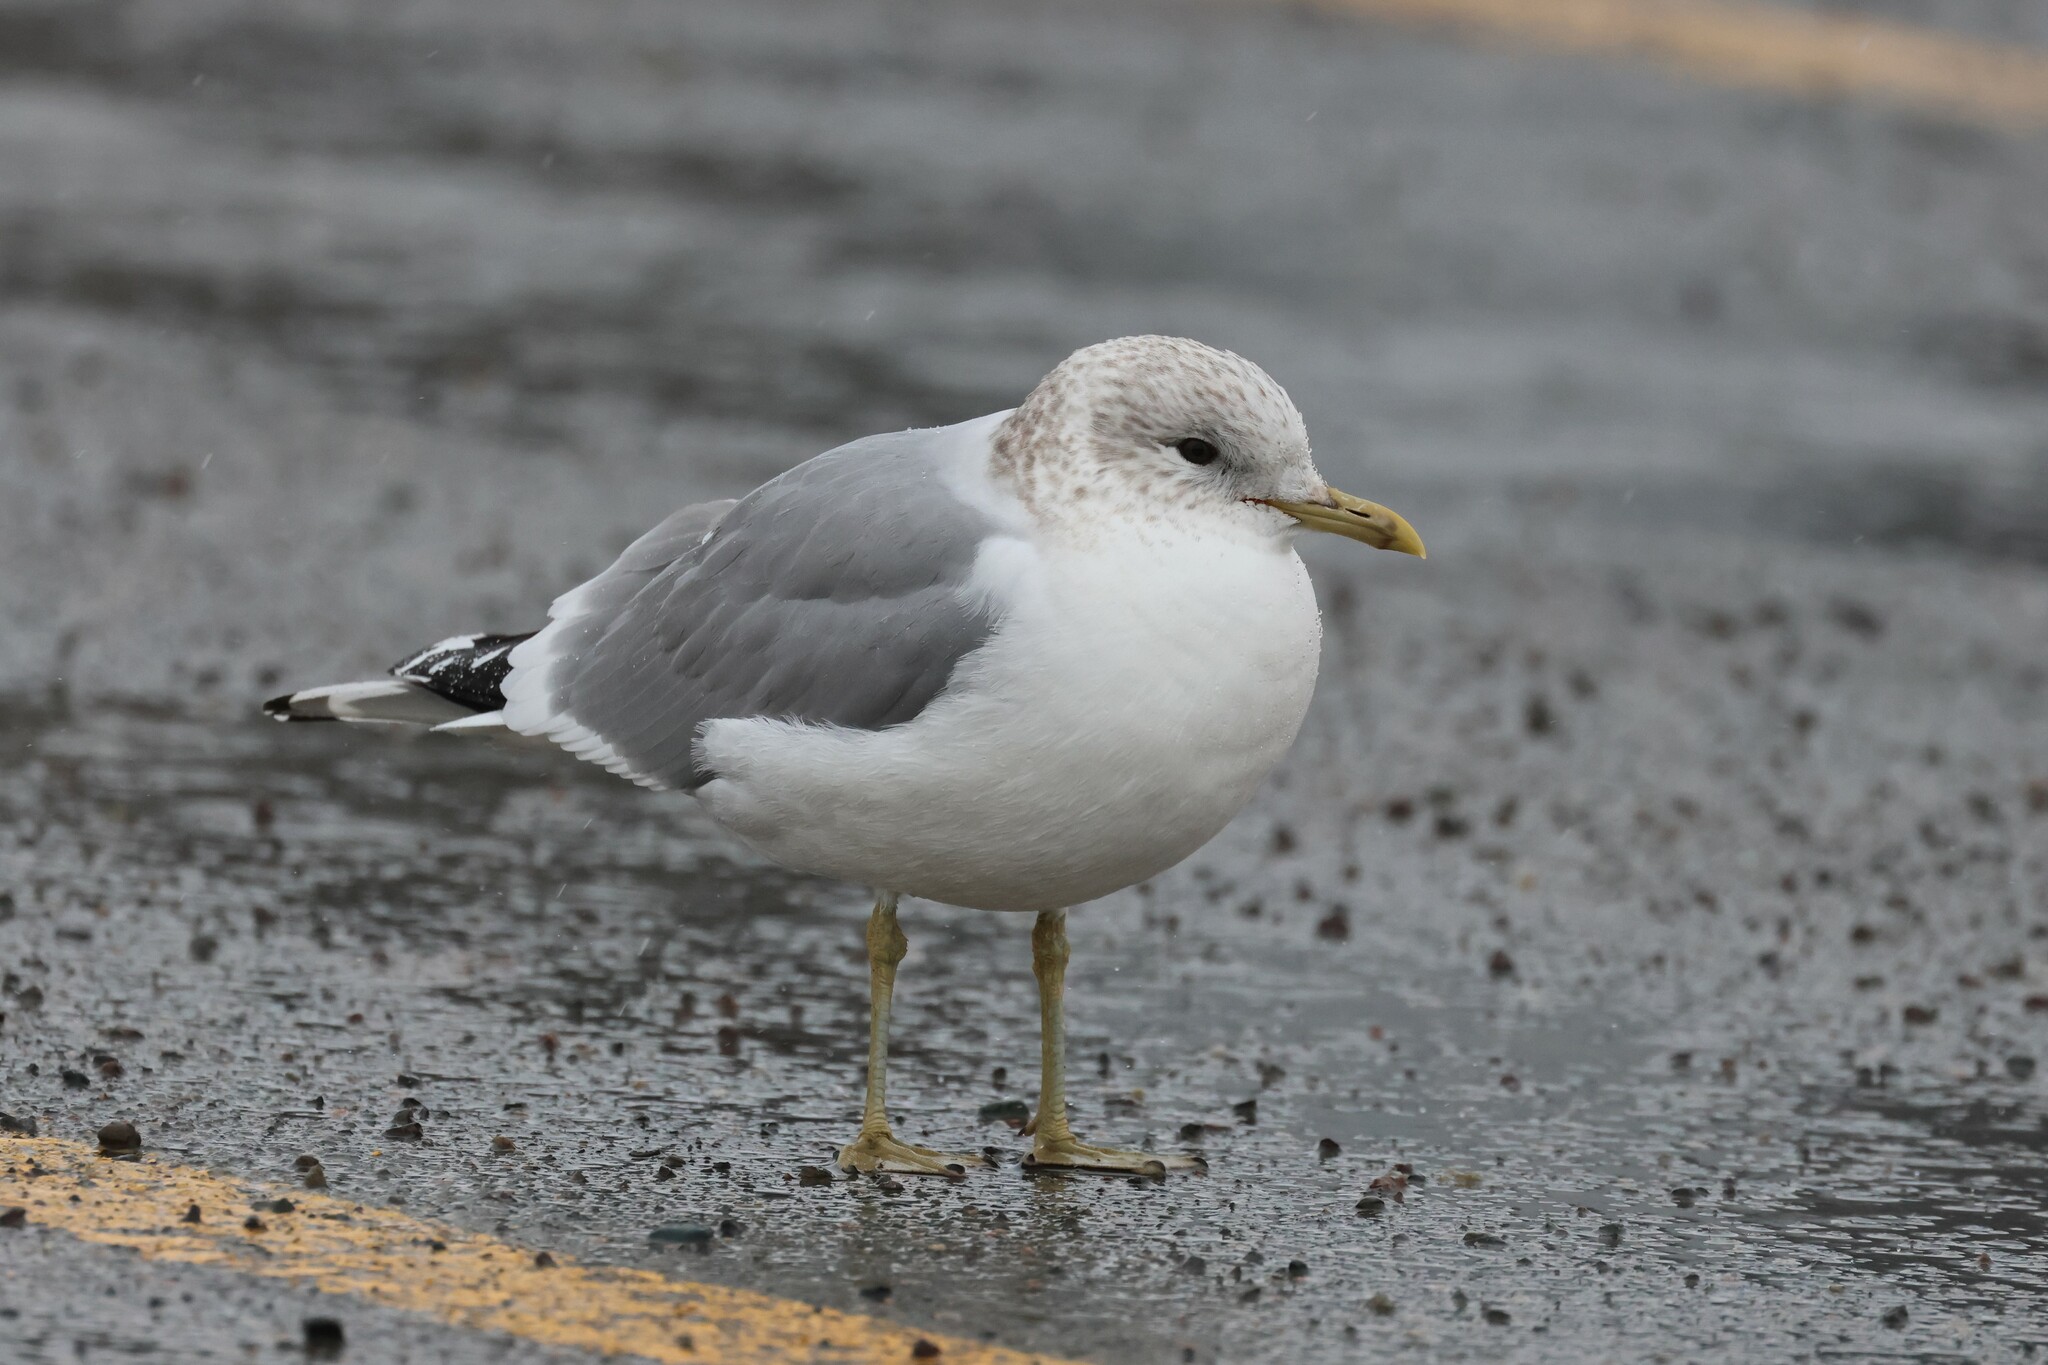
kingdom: Animalia
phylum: Chordata
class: Aves
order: Charadriiformes
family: Laridae
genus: Larus
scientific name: Larus canus
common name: Mew gull
